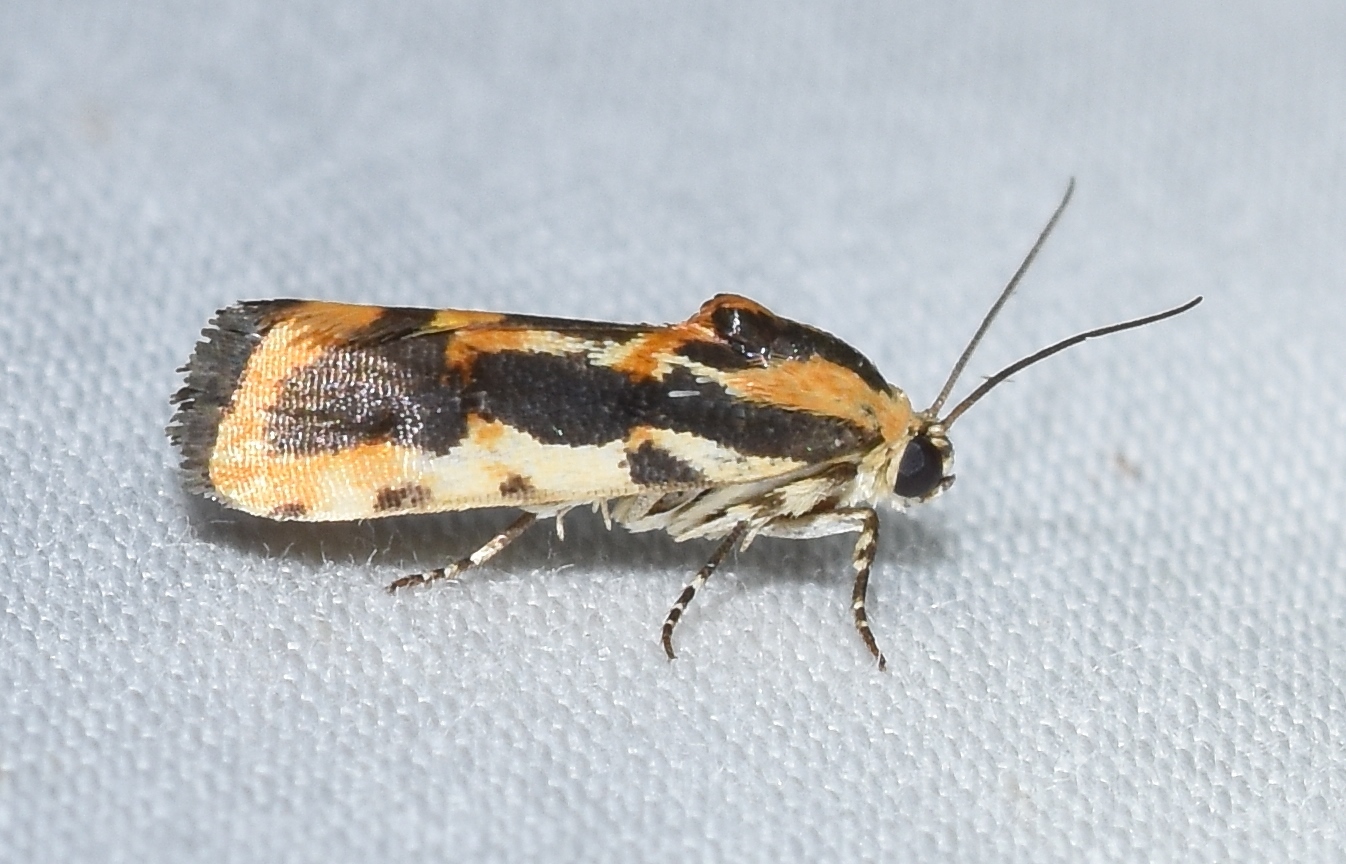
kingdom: Animalia
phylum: Arthropoda
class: Insecta
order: Lepidoptera
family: Noctuidae
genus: Acontia
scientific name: Acontia leo
